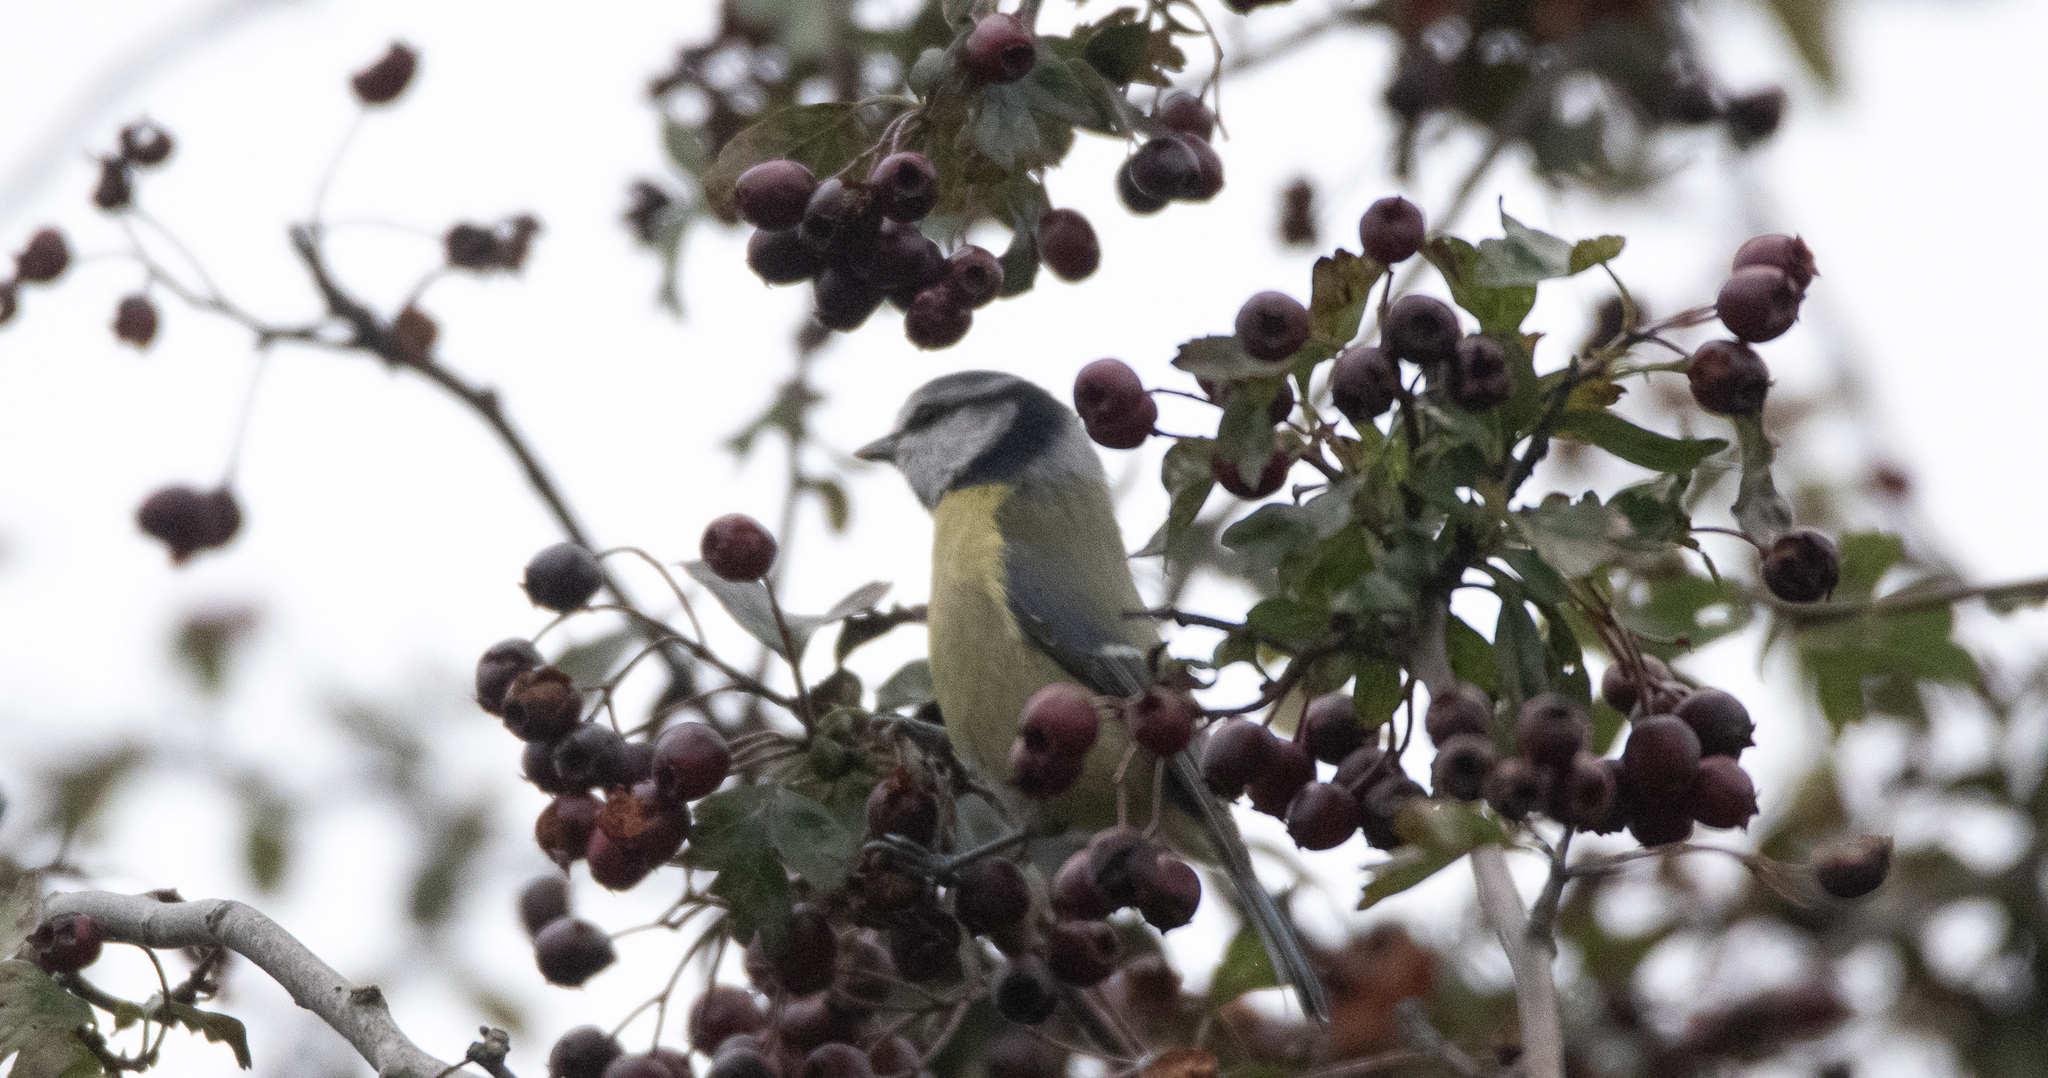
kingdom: Animalia
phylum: Chordata
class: Aves
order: Passeriformes
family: Paridae
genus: Cyanistes
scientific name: Cyanistes caeruleus
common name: Eurasian blue tit
